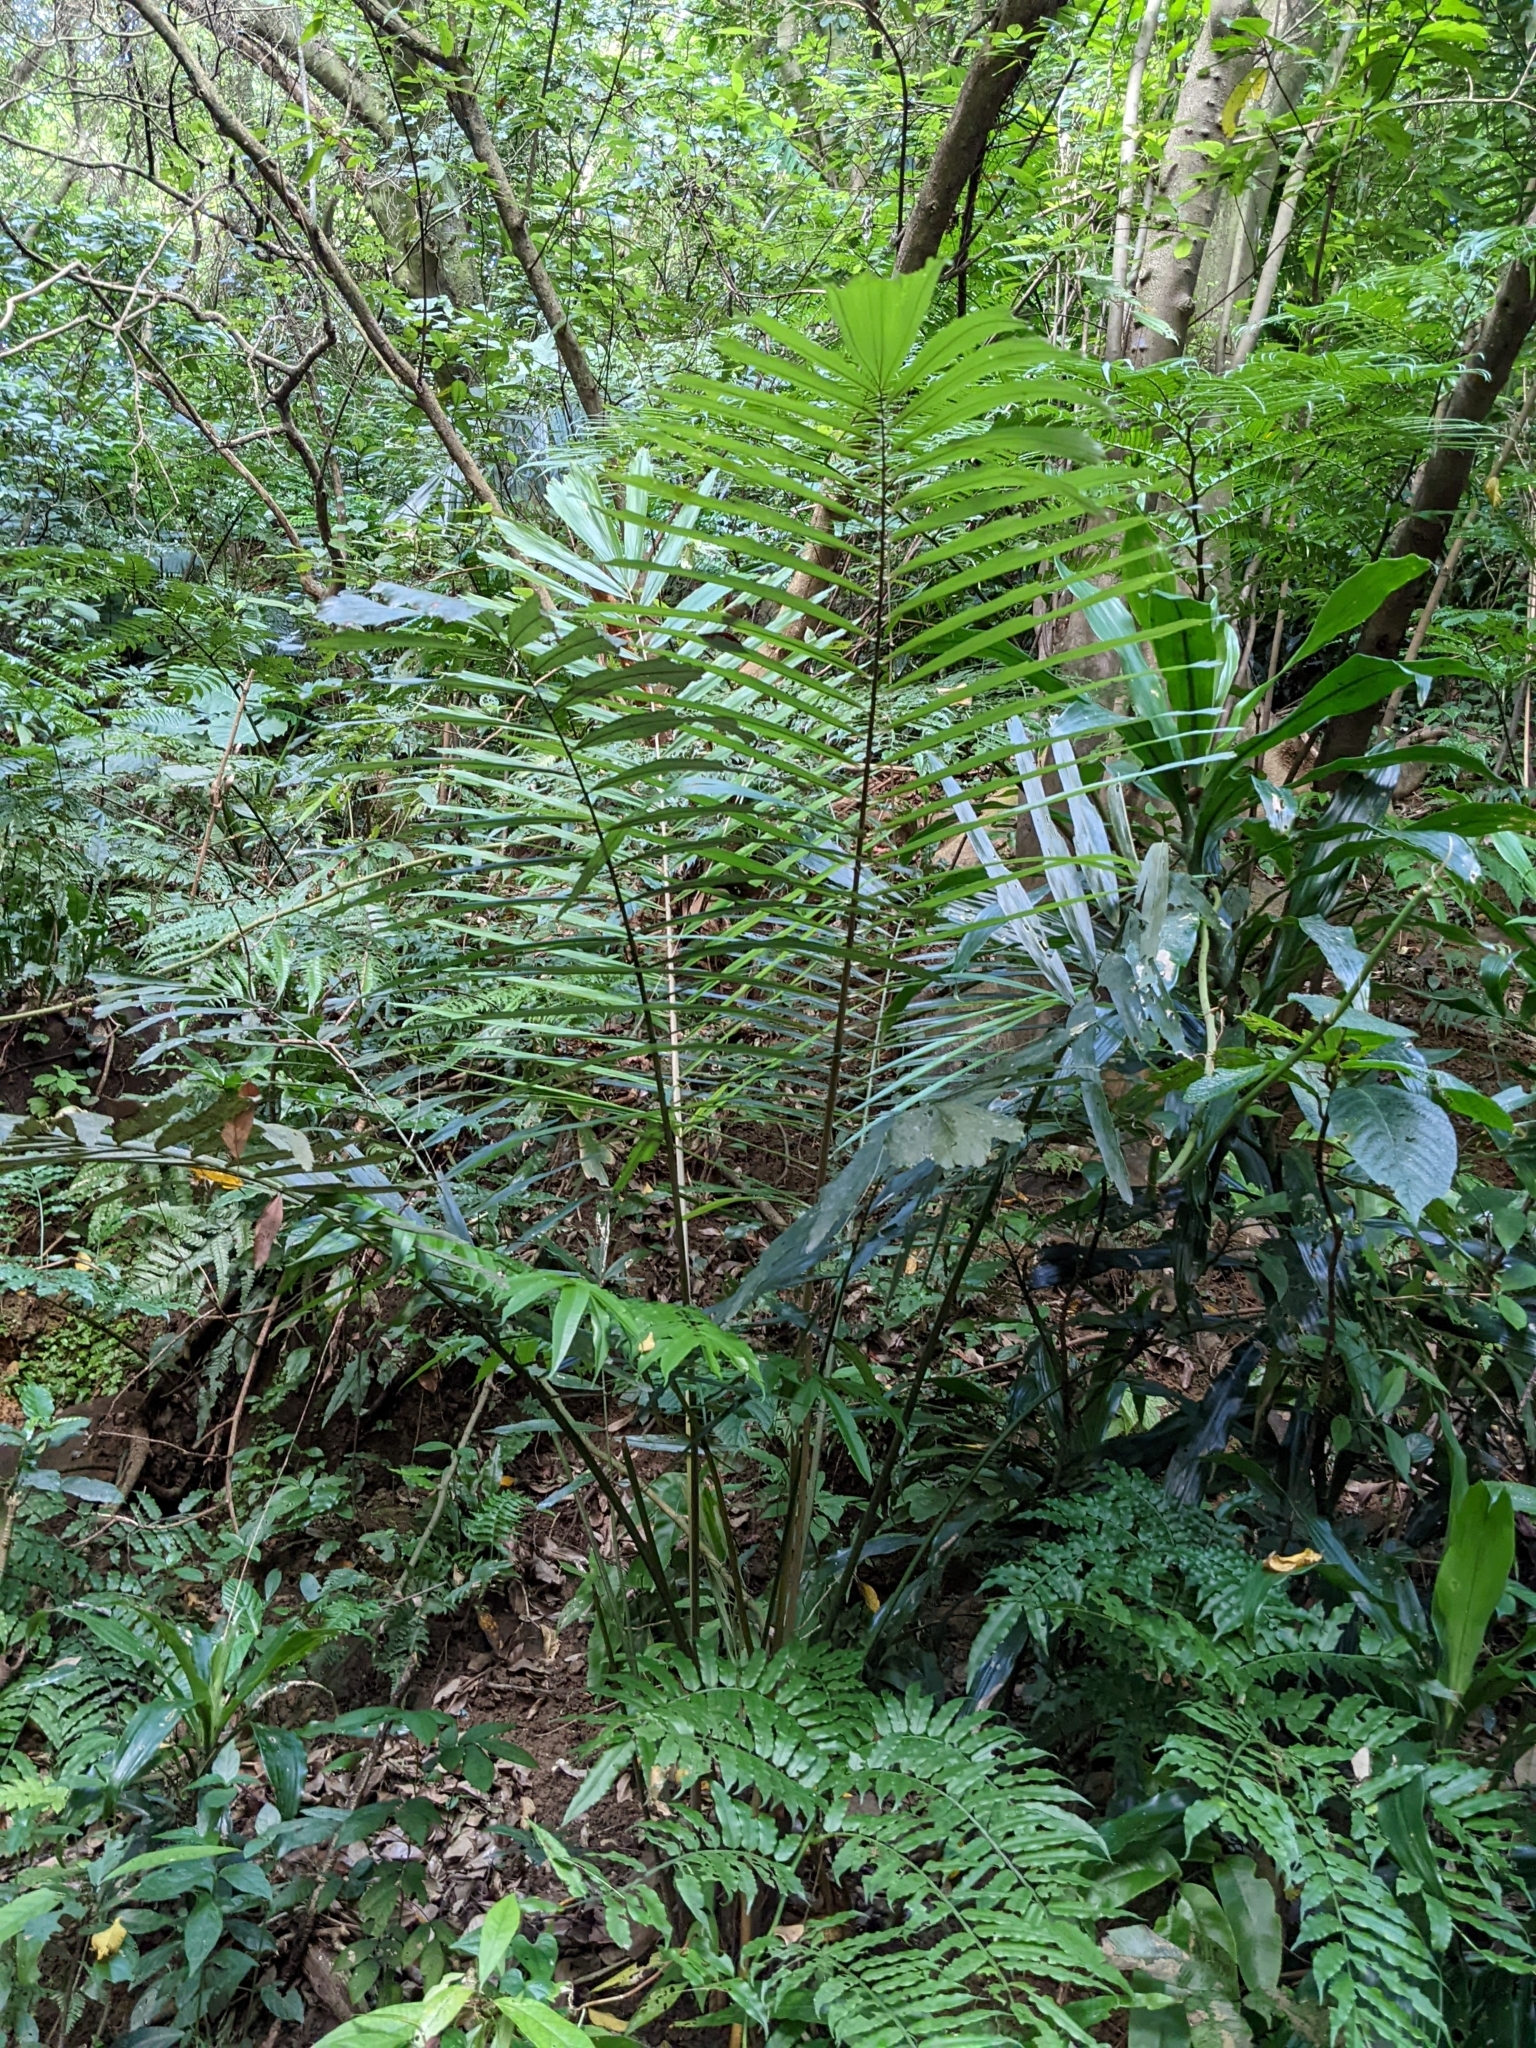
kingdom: Plantae
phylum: Tracheophyta
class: Liliopsida
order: Arecales
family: Arecaceae
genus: Arenga
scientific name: Arenga engleri
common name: Formosan sugar palm
